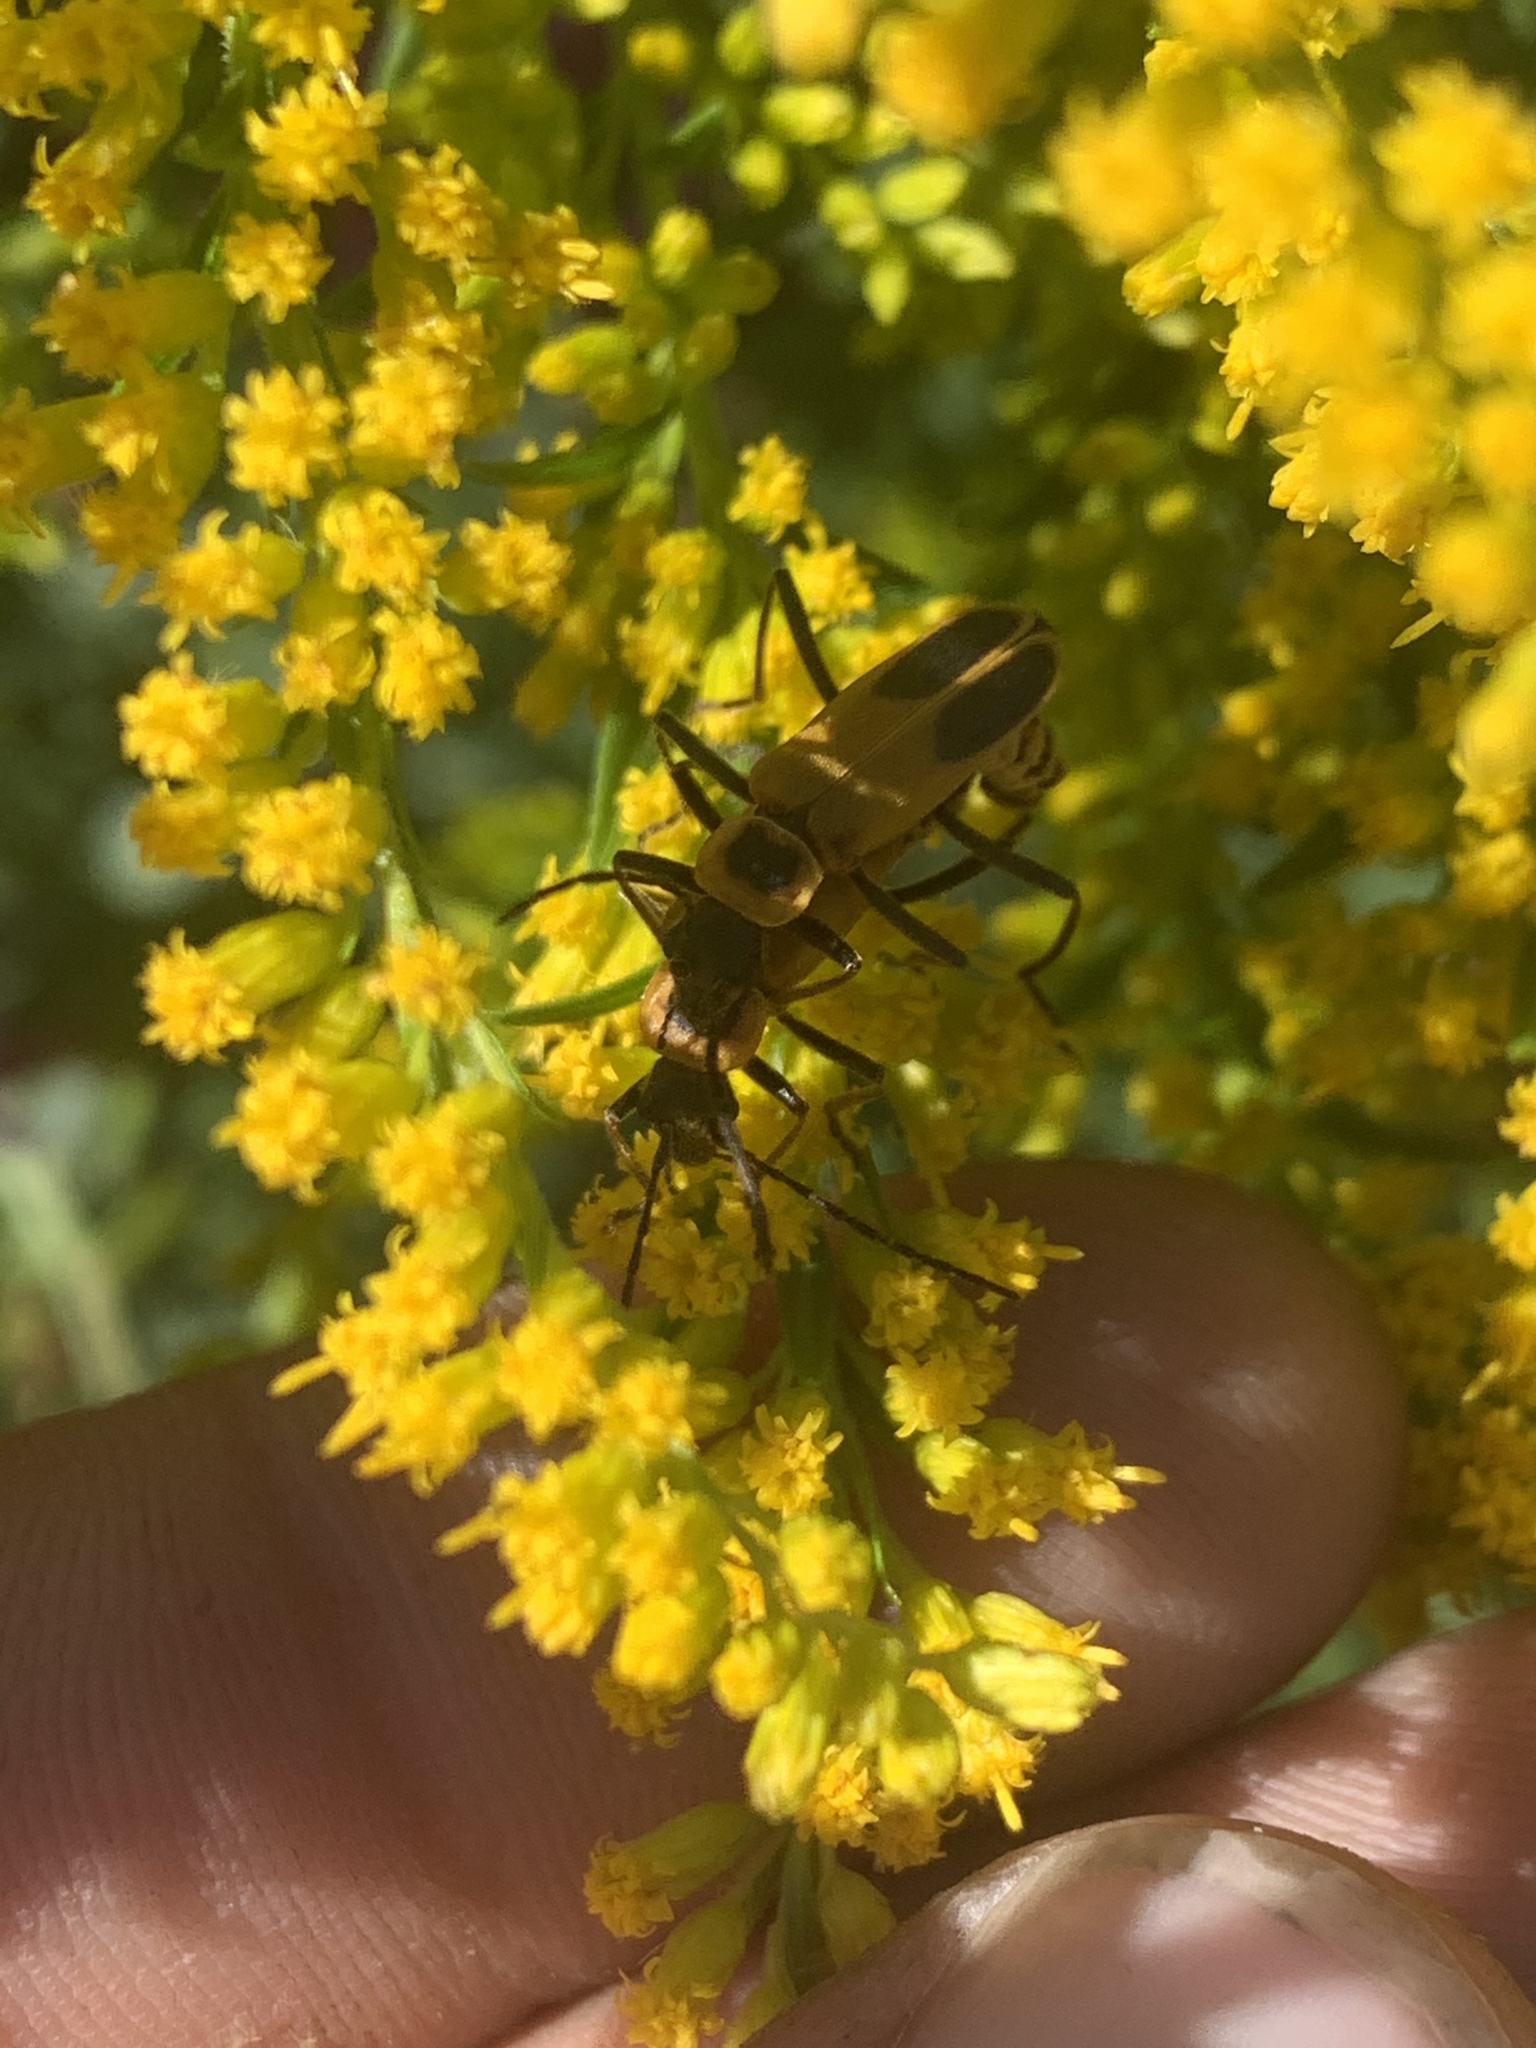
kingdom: Animalia
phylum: Arthropoda
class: Insecta
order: Coleoptera
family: Cantharidae
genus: Chauliognathus
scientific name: Chauliognathus pensylvanicus
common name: Goldenrod soldier beetle
